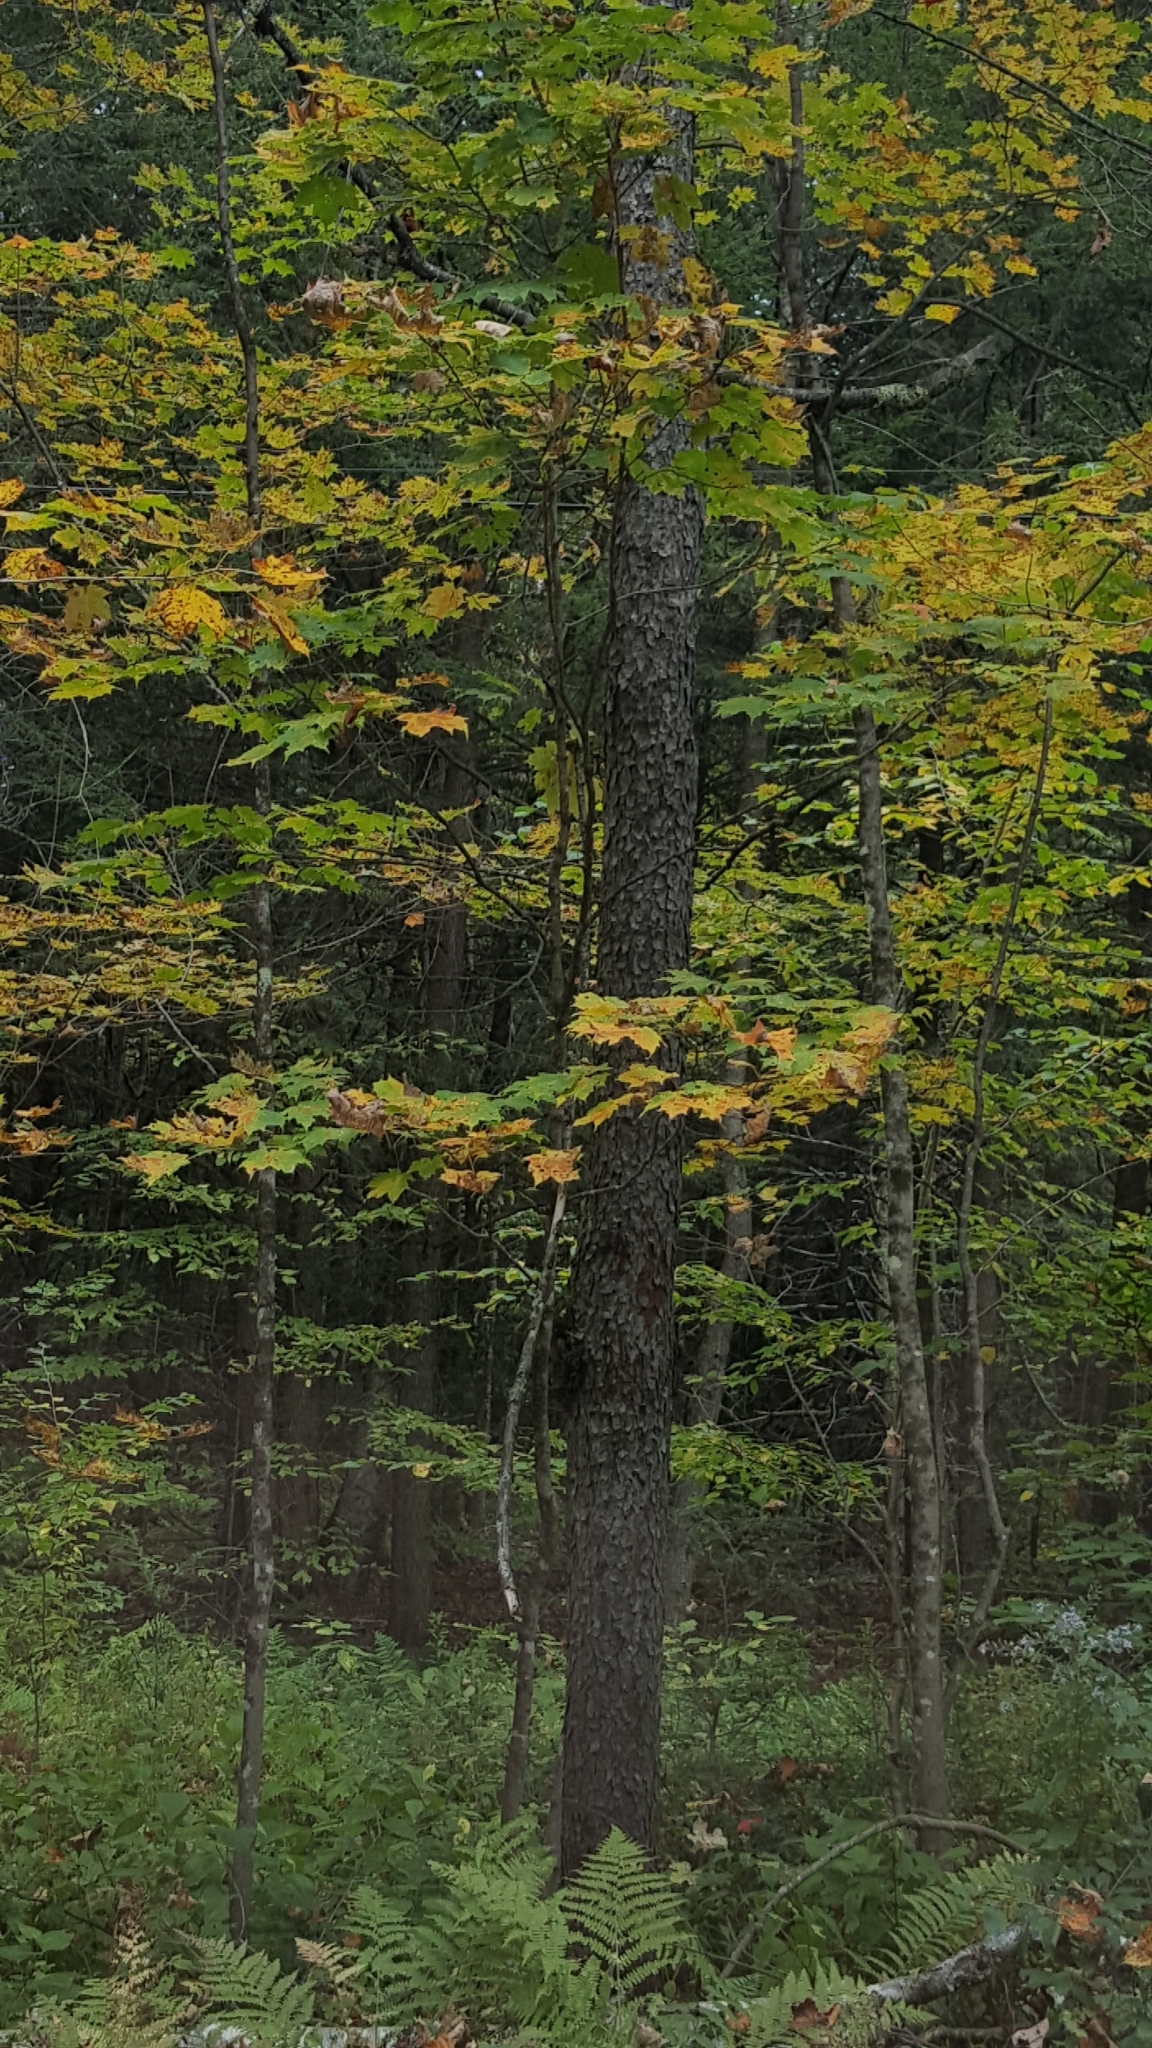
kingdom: Plantae
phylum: Tracheophyta
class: Magnoliopsida
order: Rosales
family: Rosaceae
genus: Prunus
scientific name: Prunus serotina
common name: Black cherry
